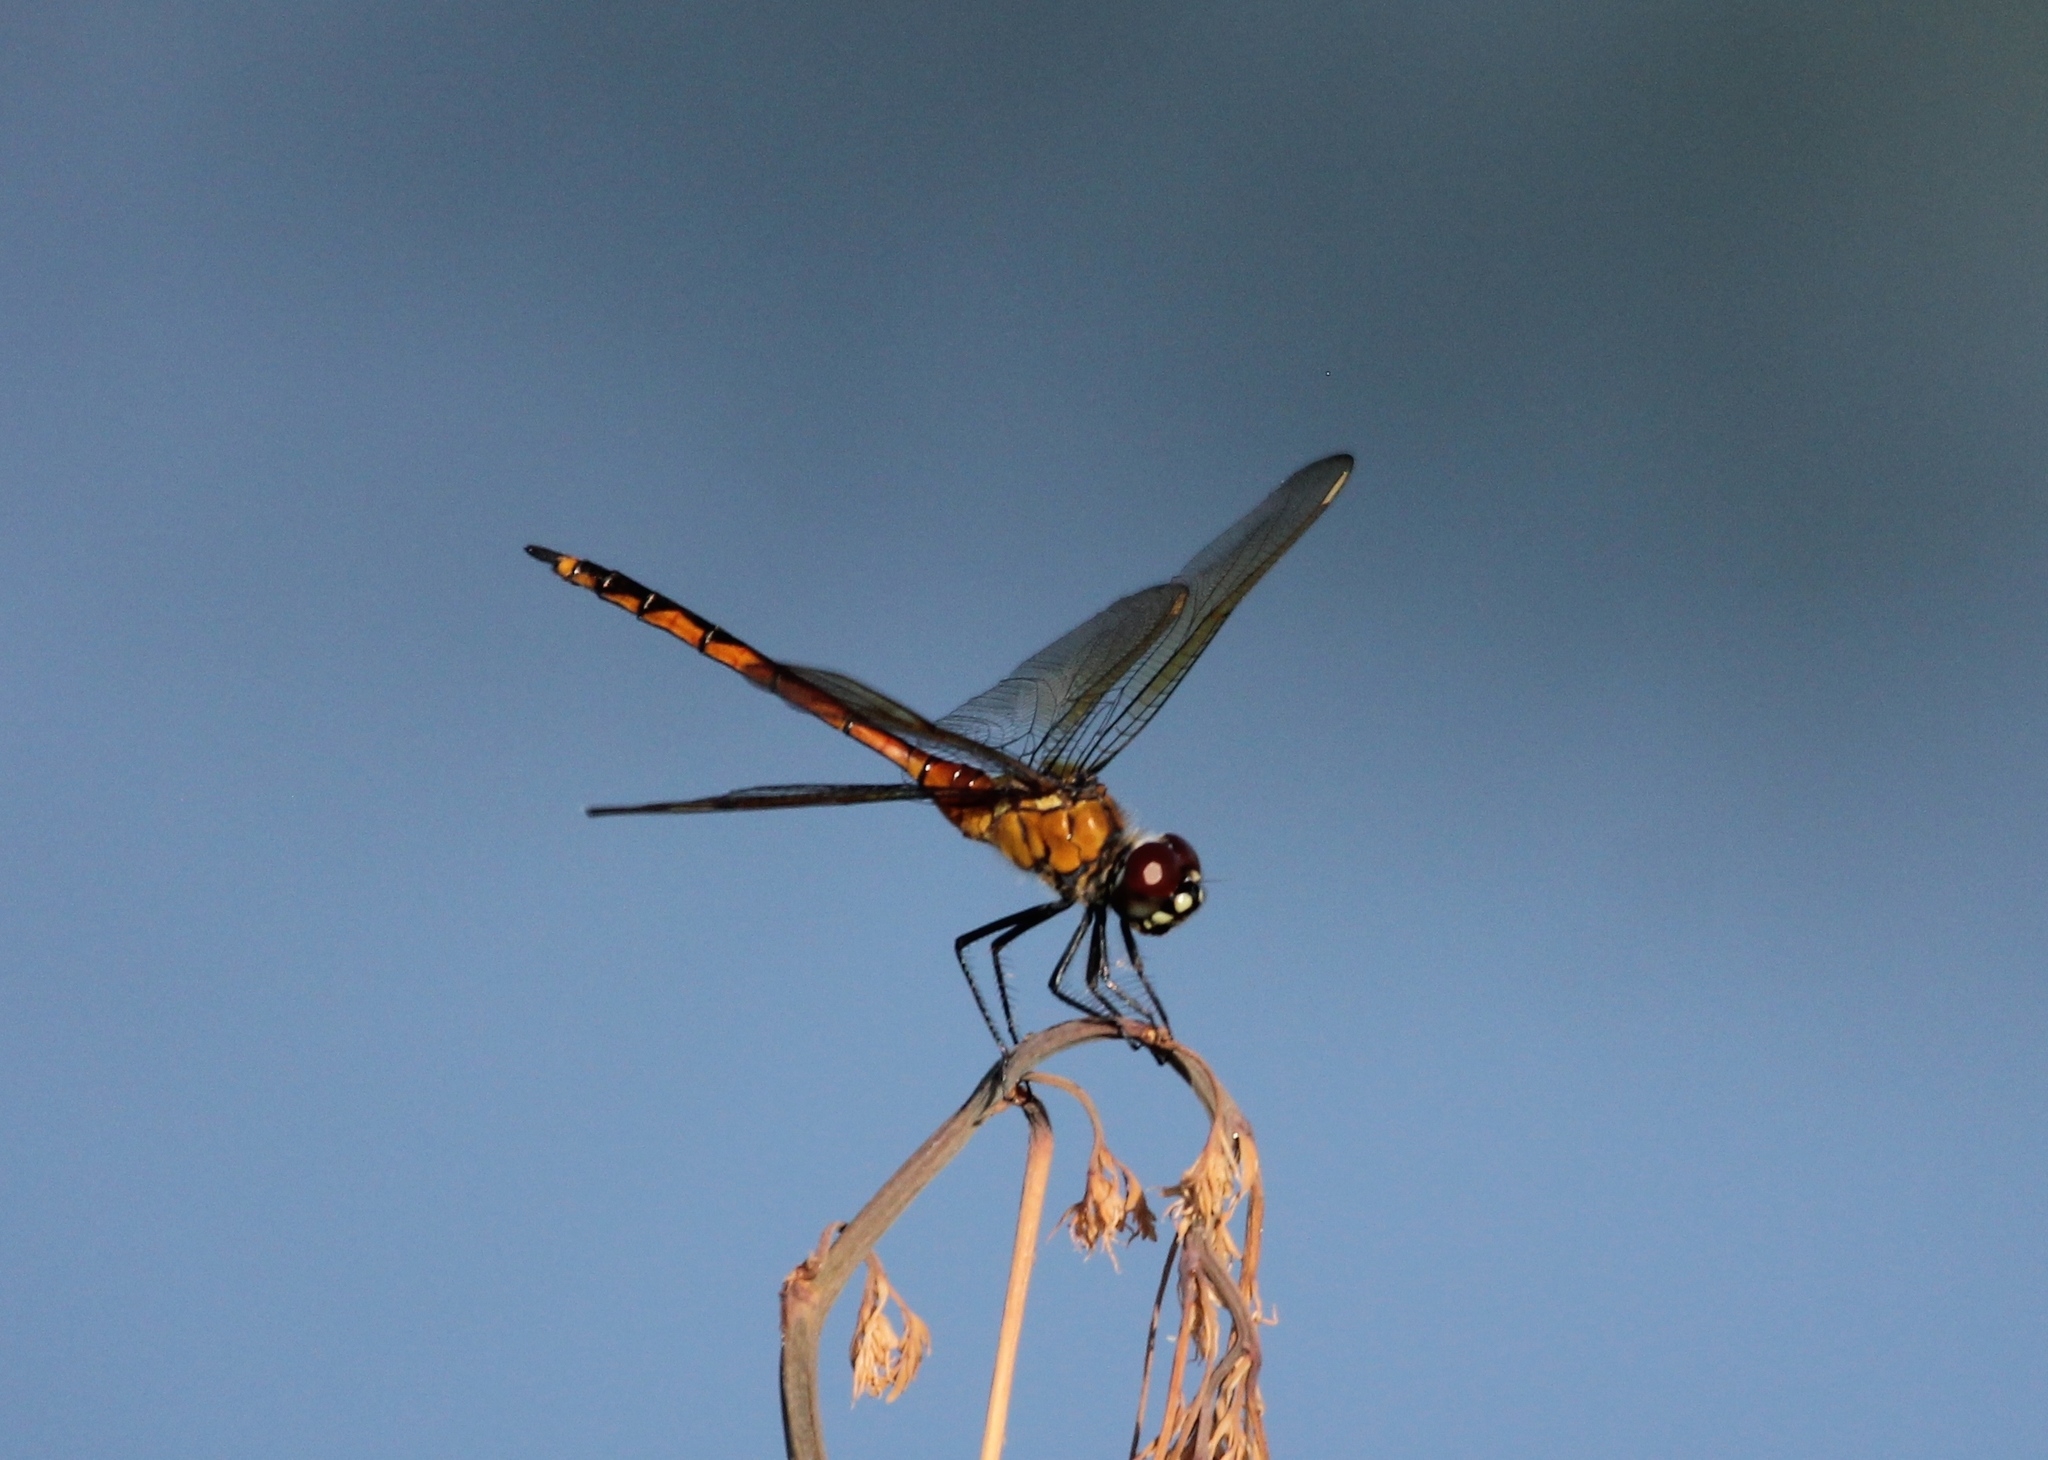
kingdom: Animalia
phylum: Arthropoda
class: Insecta
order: Odonata
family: Libellulidae
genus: Brachymesia
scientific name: Brachymesia gravida
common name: Four-spotted pennant
